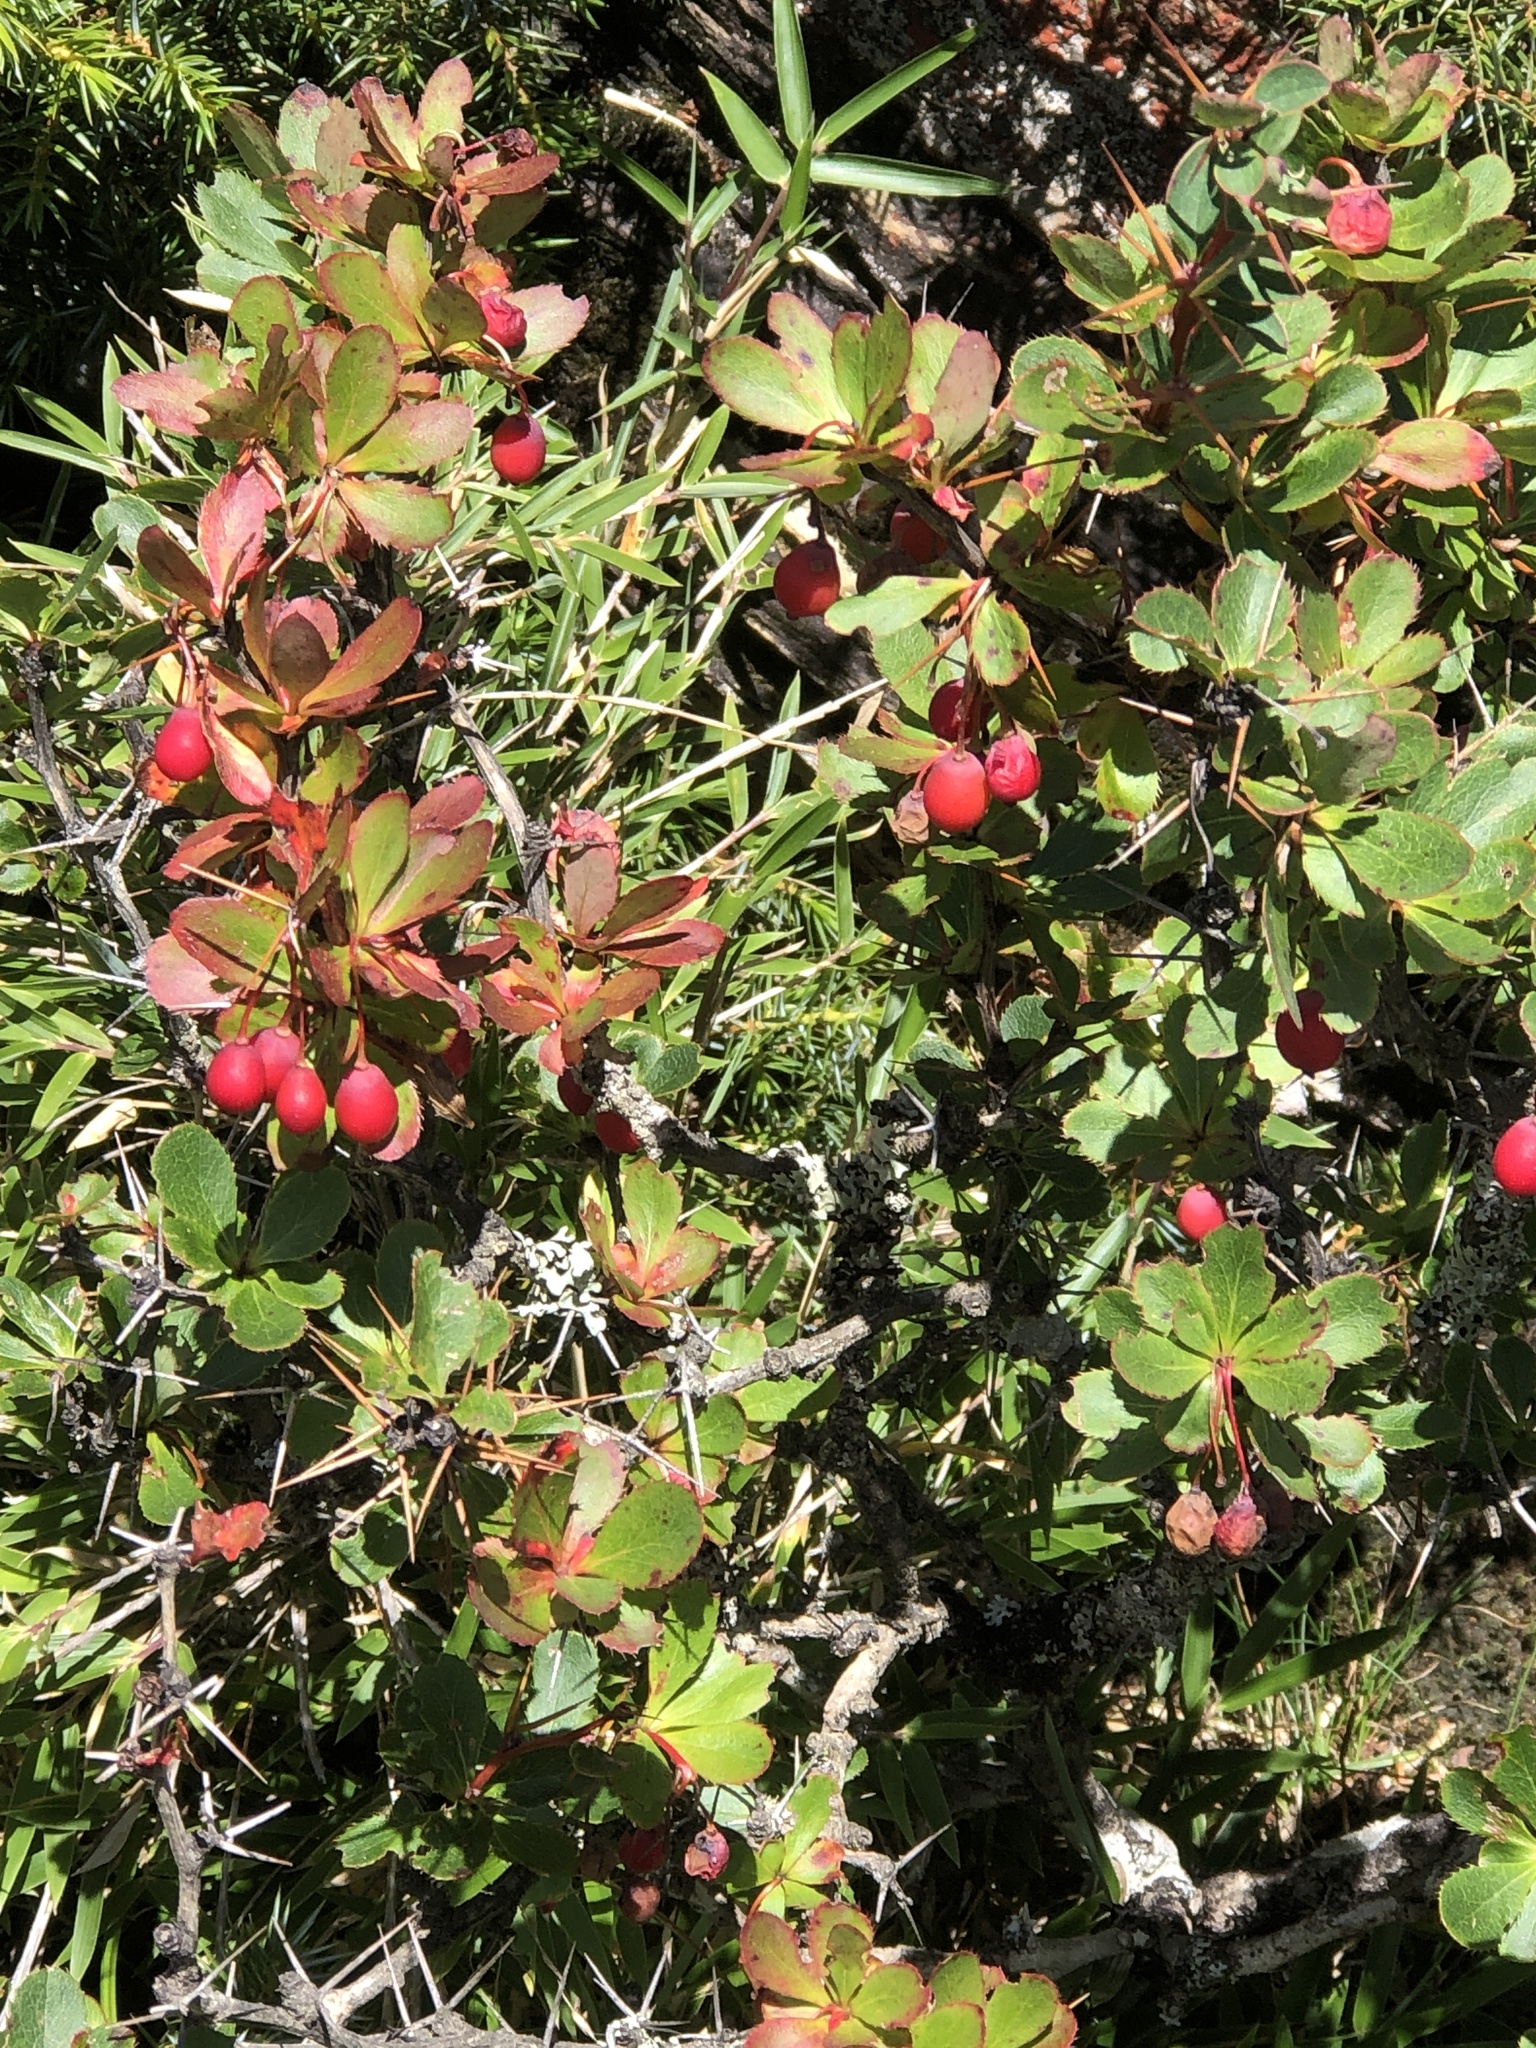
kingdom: Plantae
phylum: Tracheophyta
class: Magnoliopsida
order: Ranunculales
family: Berberidaceae
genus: Berberis
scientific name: Berberis morrisonensis
